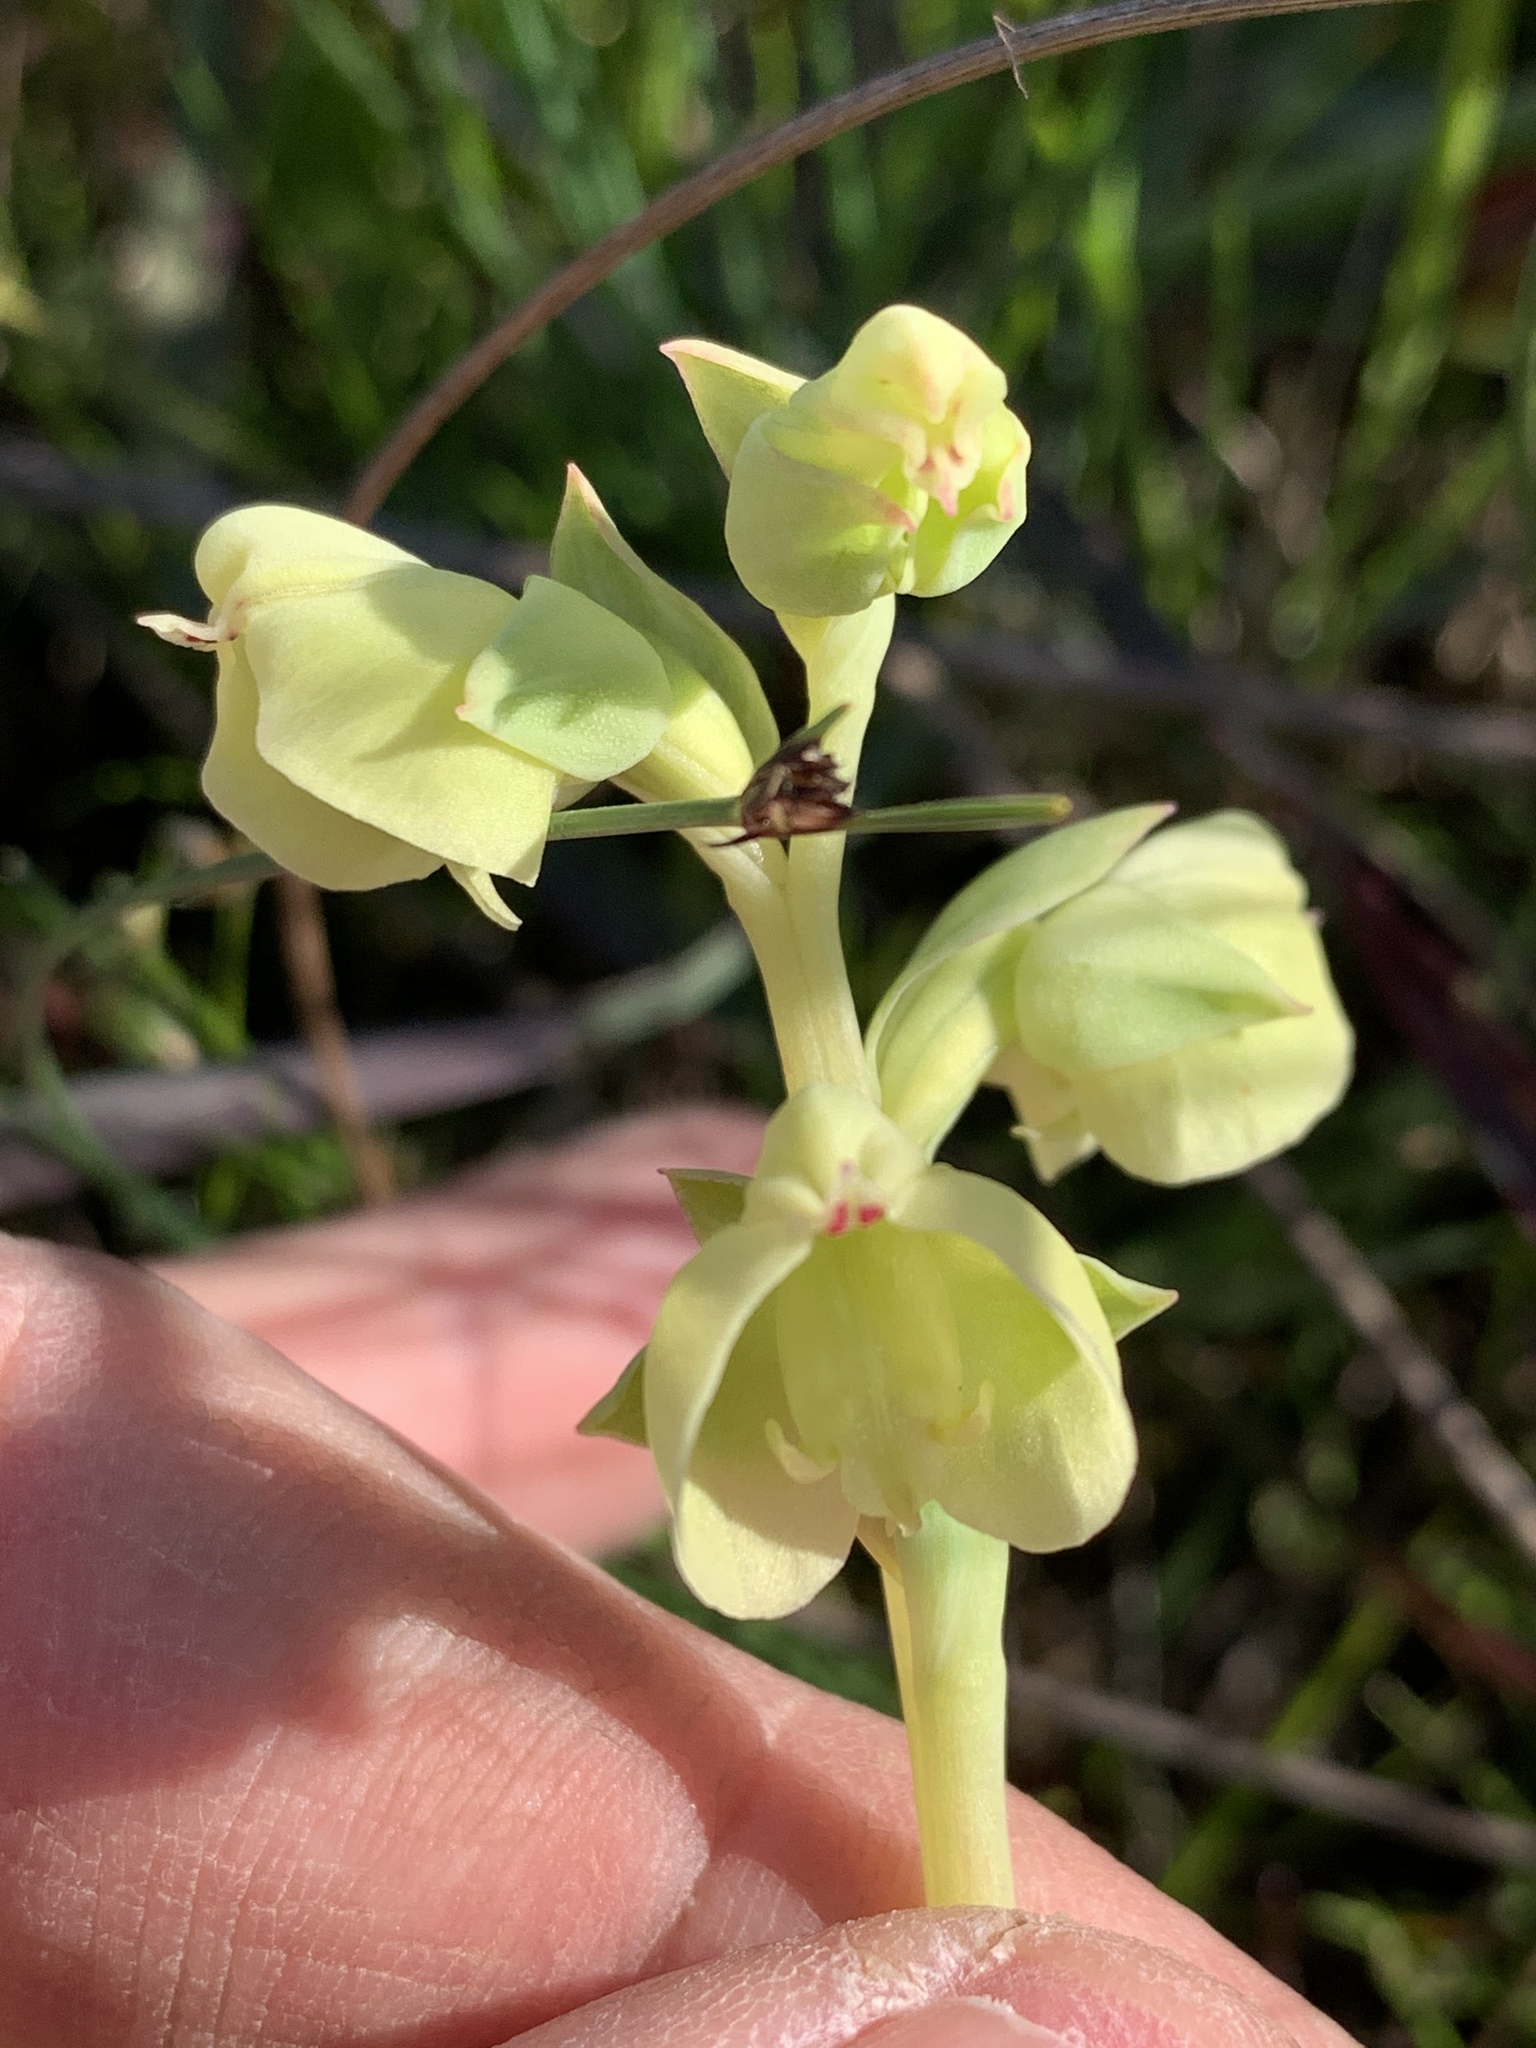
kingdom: Plantae
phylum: Tracheophyta
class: Liliopsida
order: Asparagales
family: Orchidaceae
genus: Pterygodium
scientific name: Pterygodium catholicum
